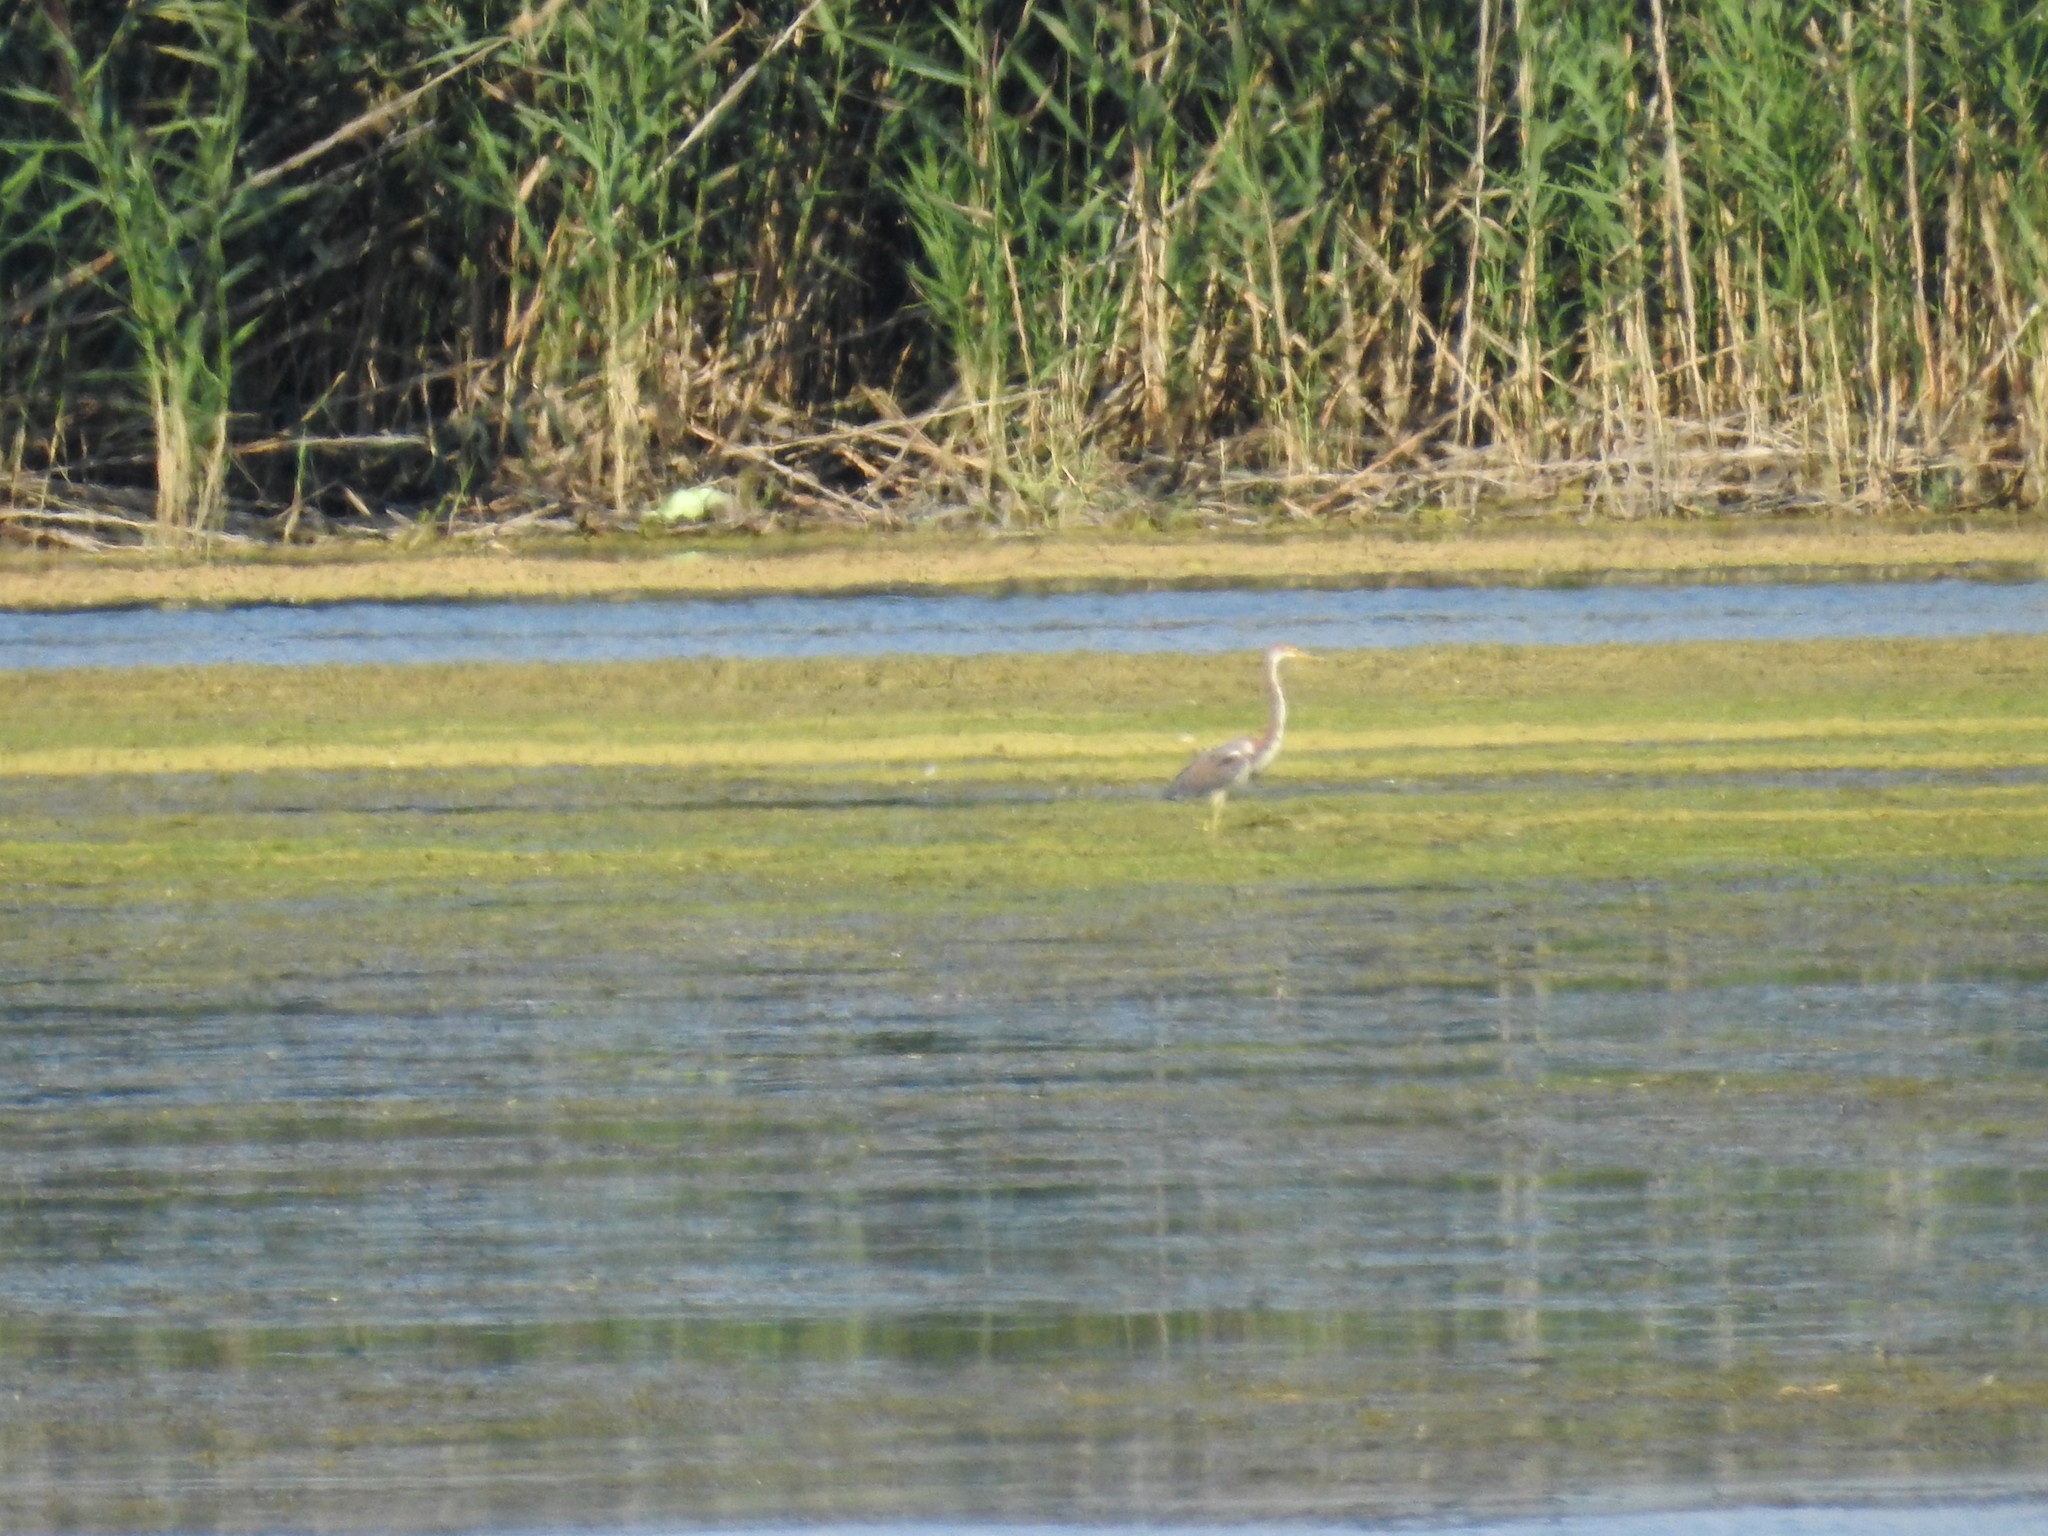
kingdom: Animalia
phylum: Chordata
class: Aves
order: Pelecaniformes
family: Ardeidae
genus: Egretta
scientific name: Egretta tricolor
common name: Tricolored heron
